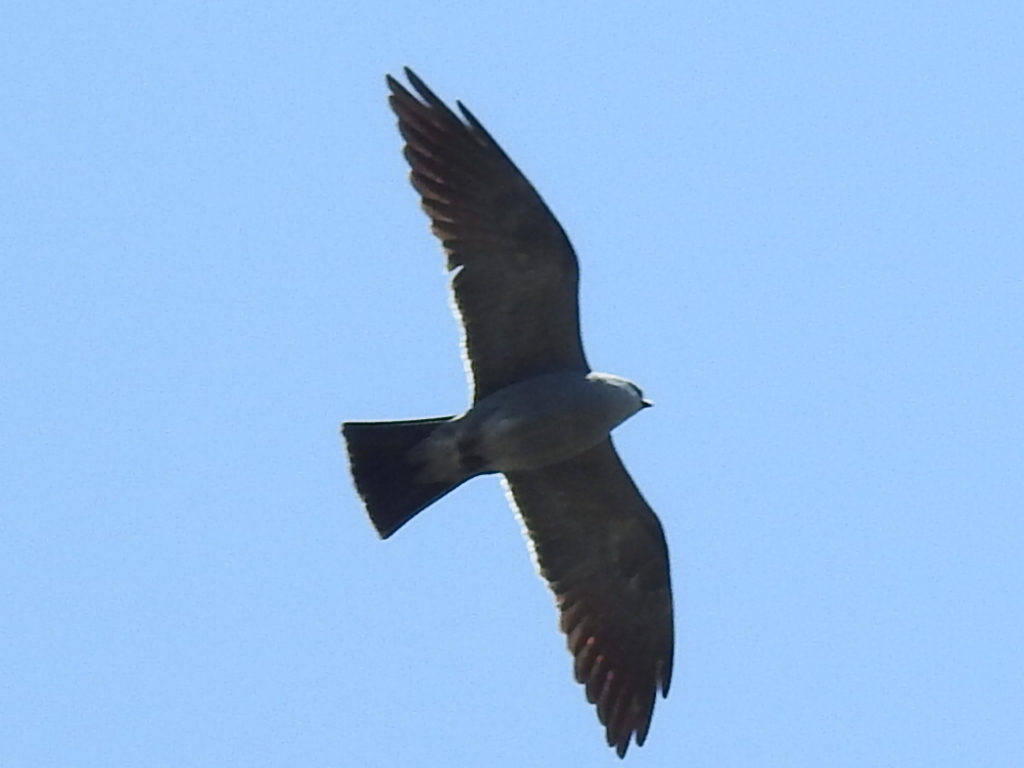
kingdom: Animalia
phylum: Chordata
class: Aves
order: Accipitriformes
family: Accipitridae
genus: Ictinia
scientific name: Ictinia mississippiensis
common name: Mississippi kite
